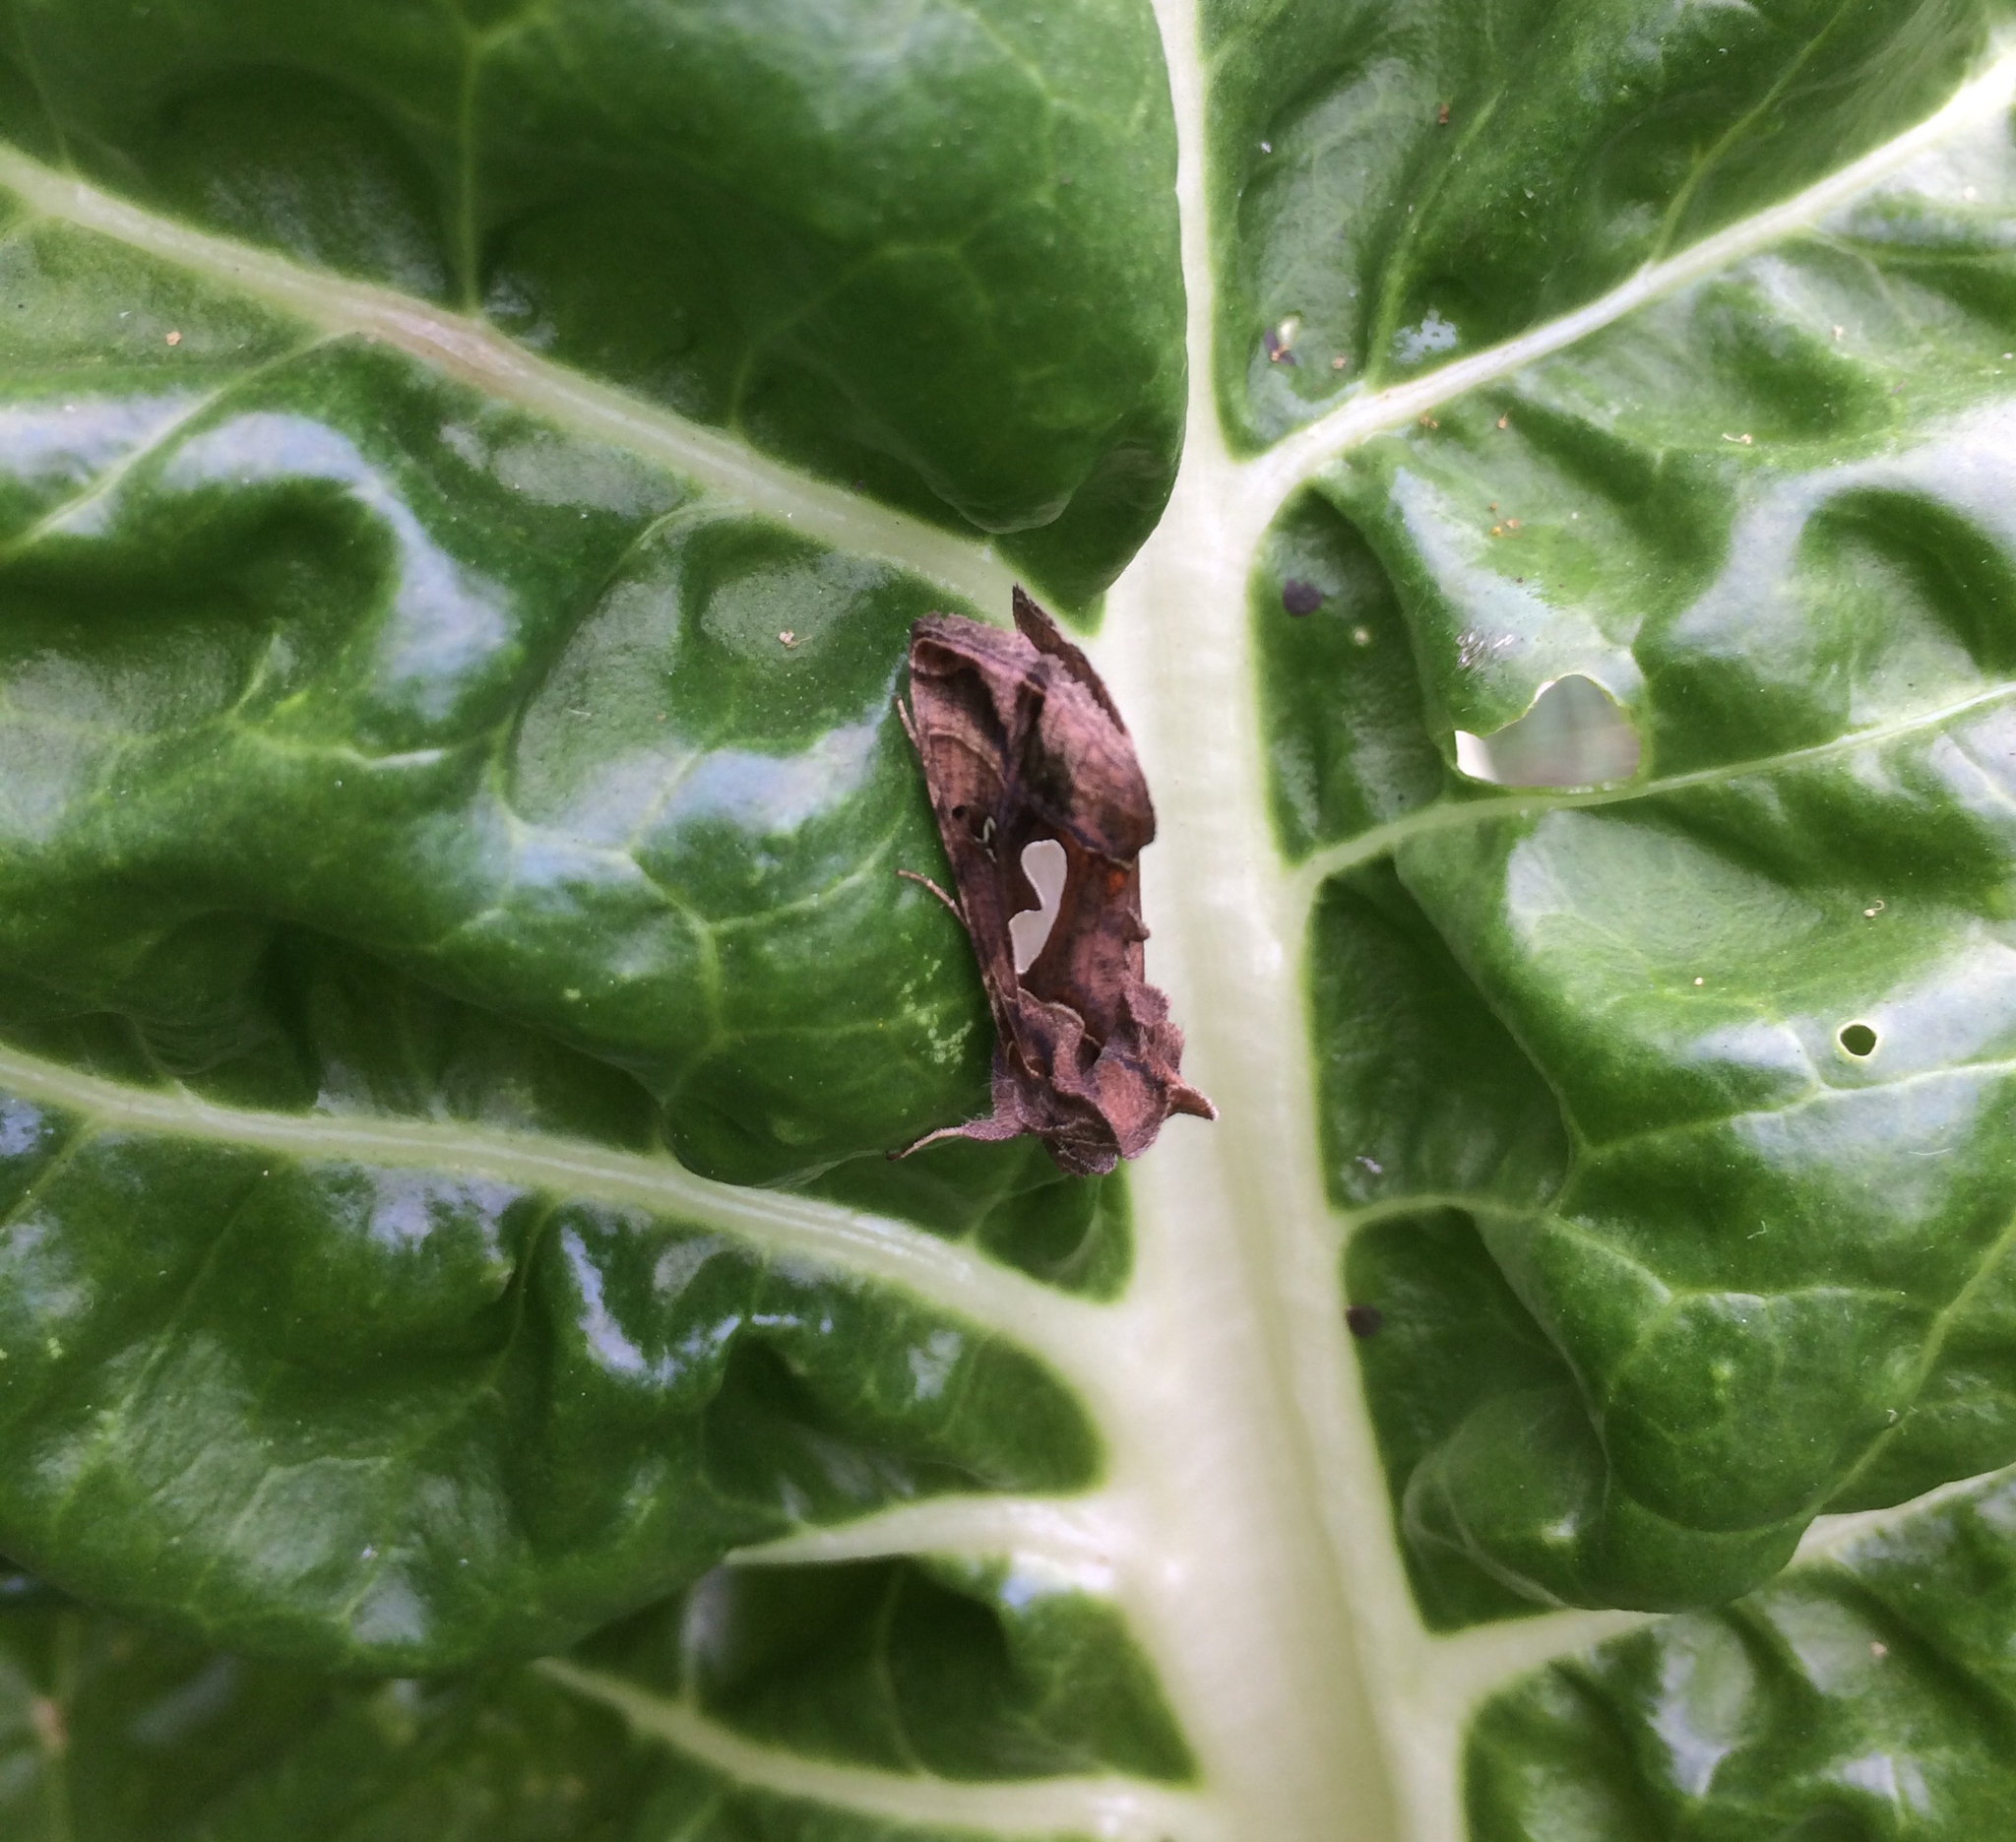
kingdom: Animalia
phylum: Arthropoda
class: Insecta
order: Lepidoptera
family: Noctuidae
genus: Megalographa
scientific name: Megalographa biloba
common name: Cutworm
